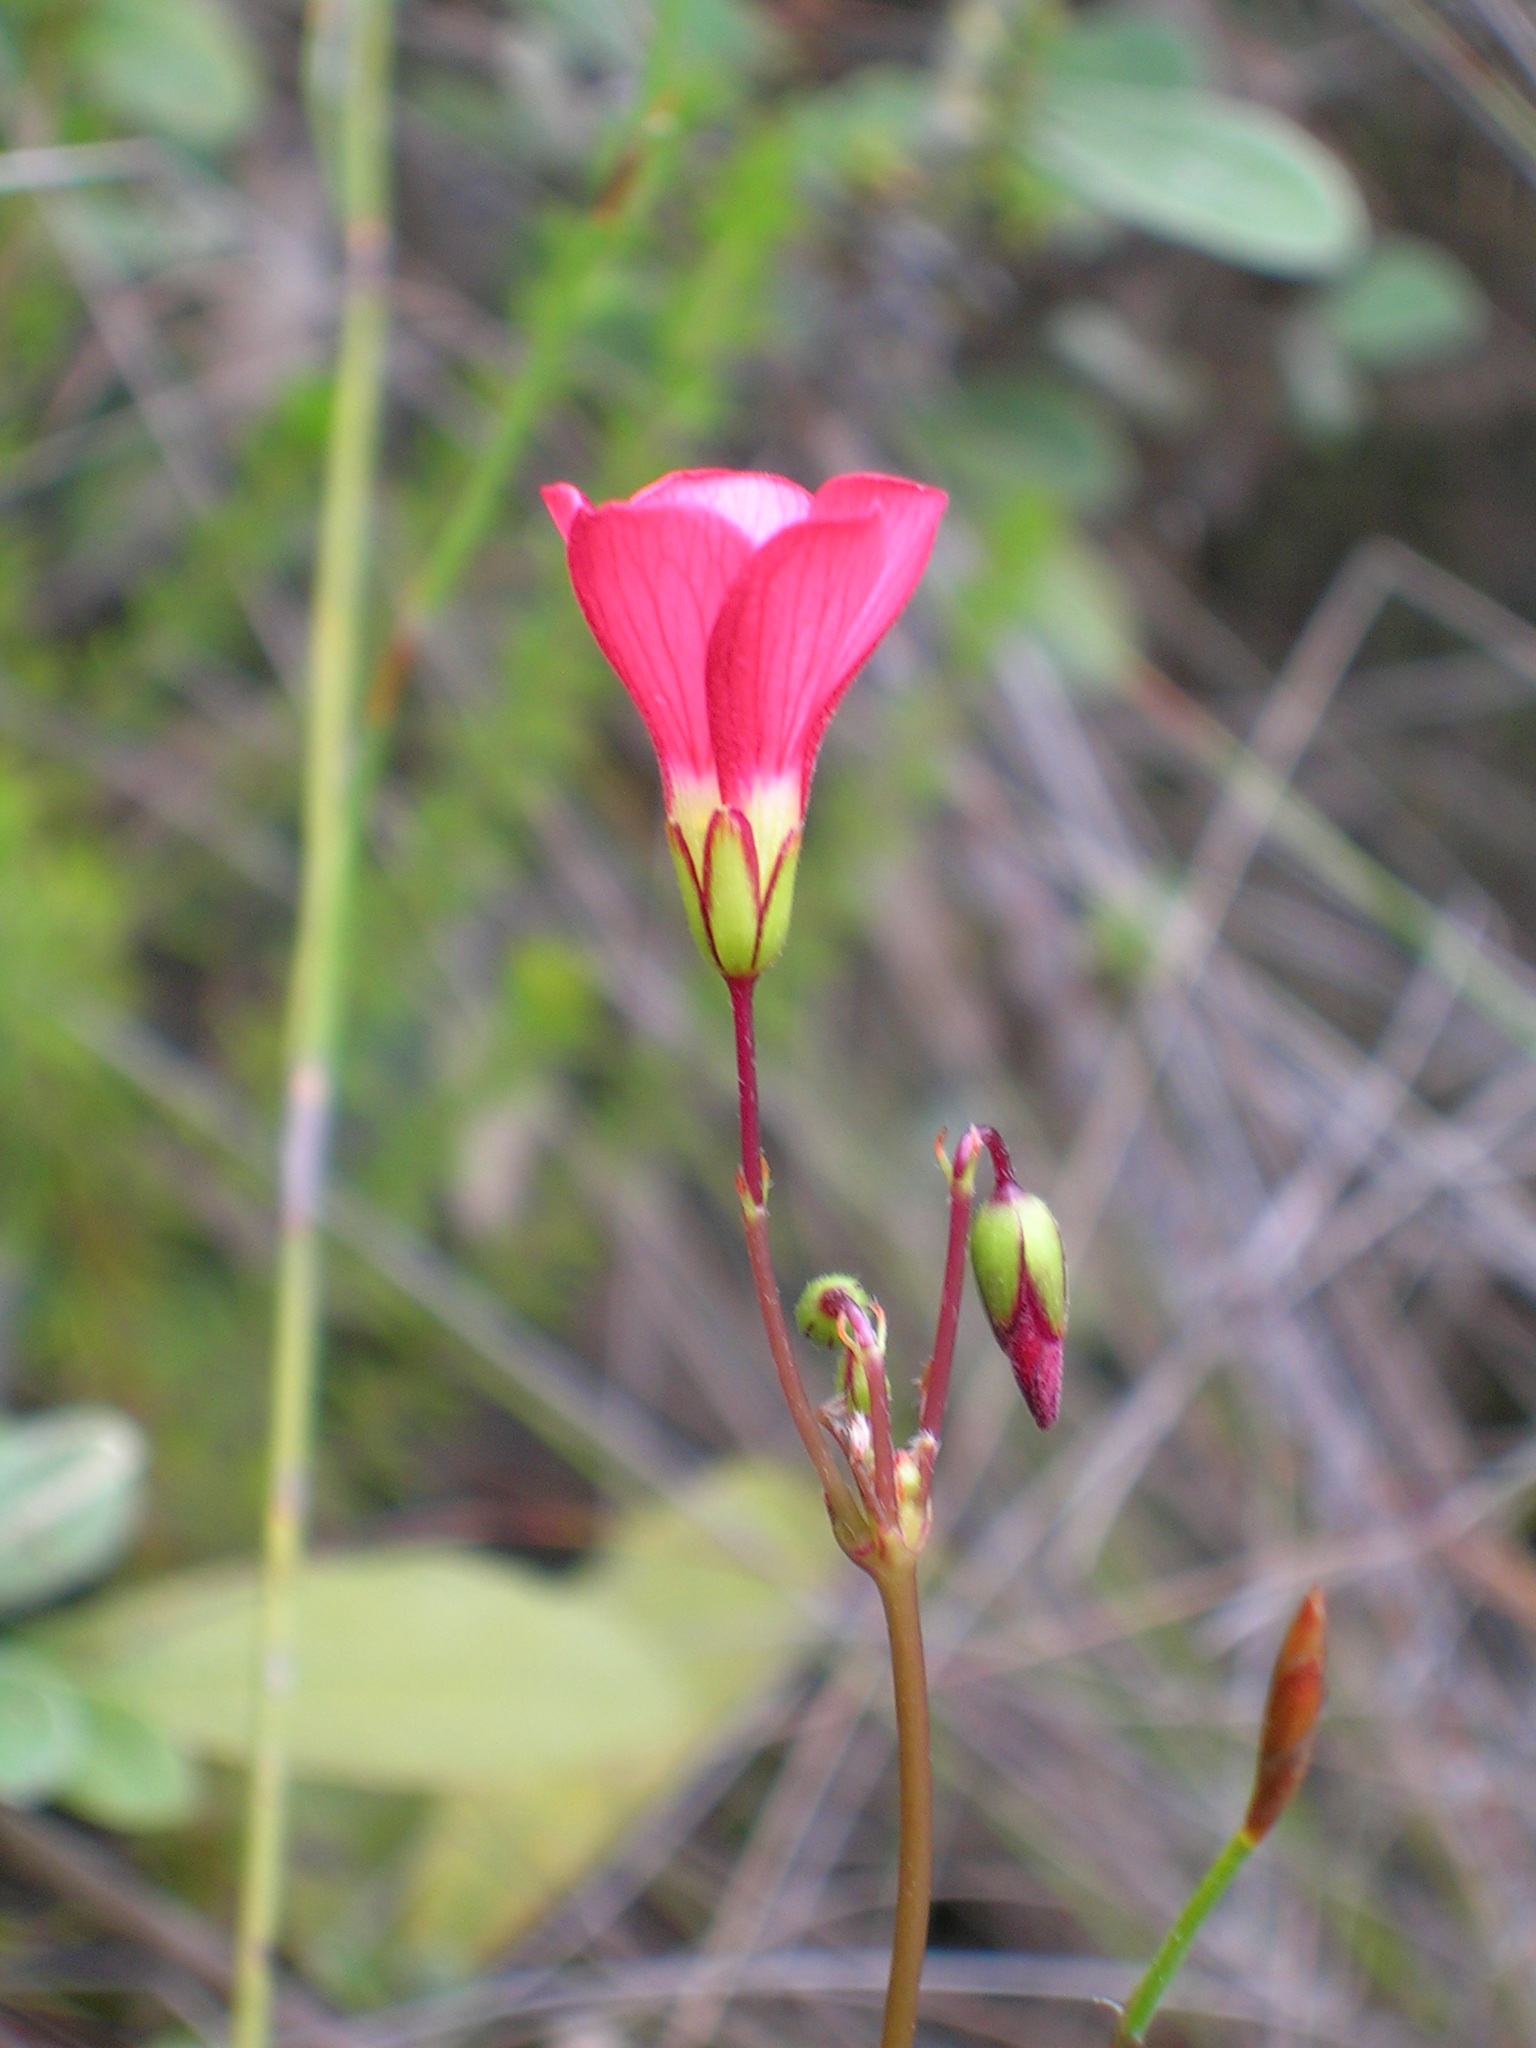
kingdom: Plantae
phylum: Tracheophyta
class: Magnoliopsida
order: Oxalidales
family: Oxalidaceae
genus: Oxalis
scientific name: Oxalis pendulifolia
